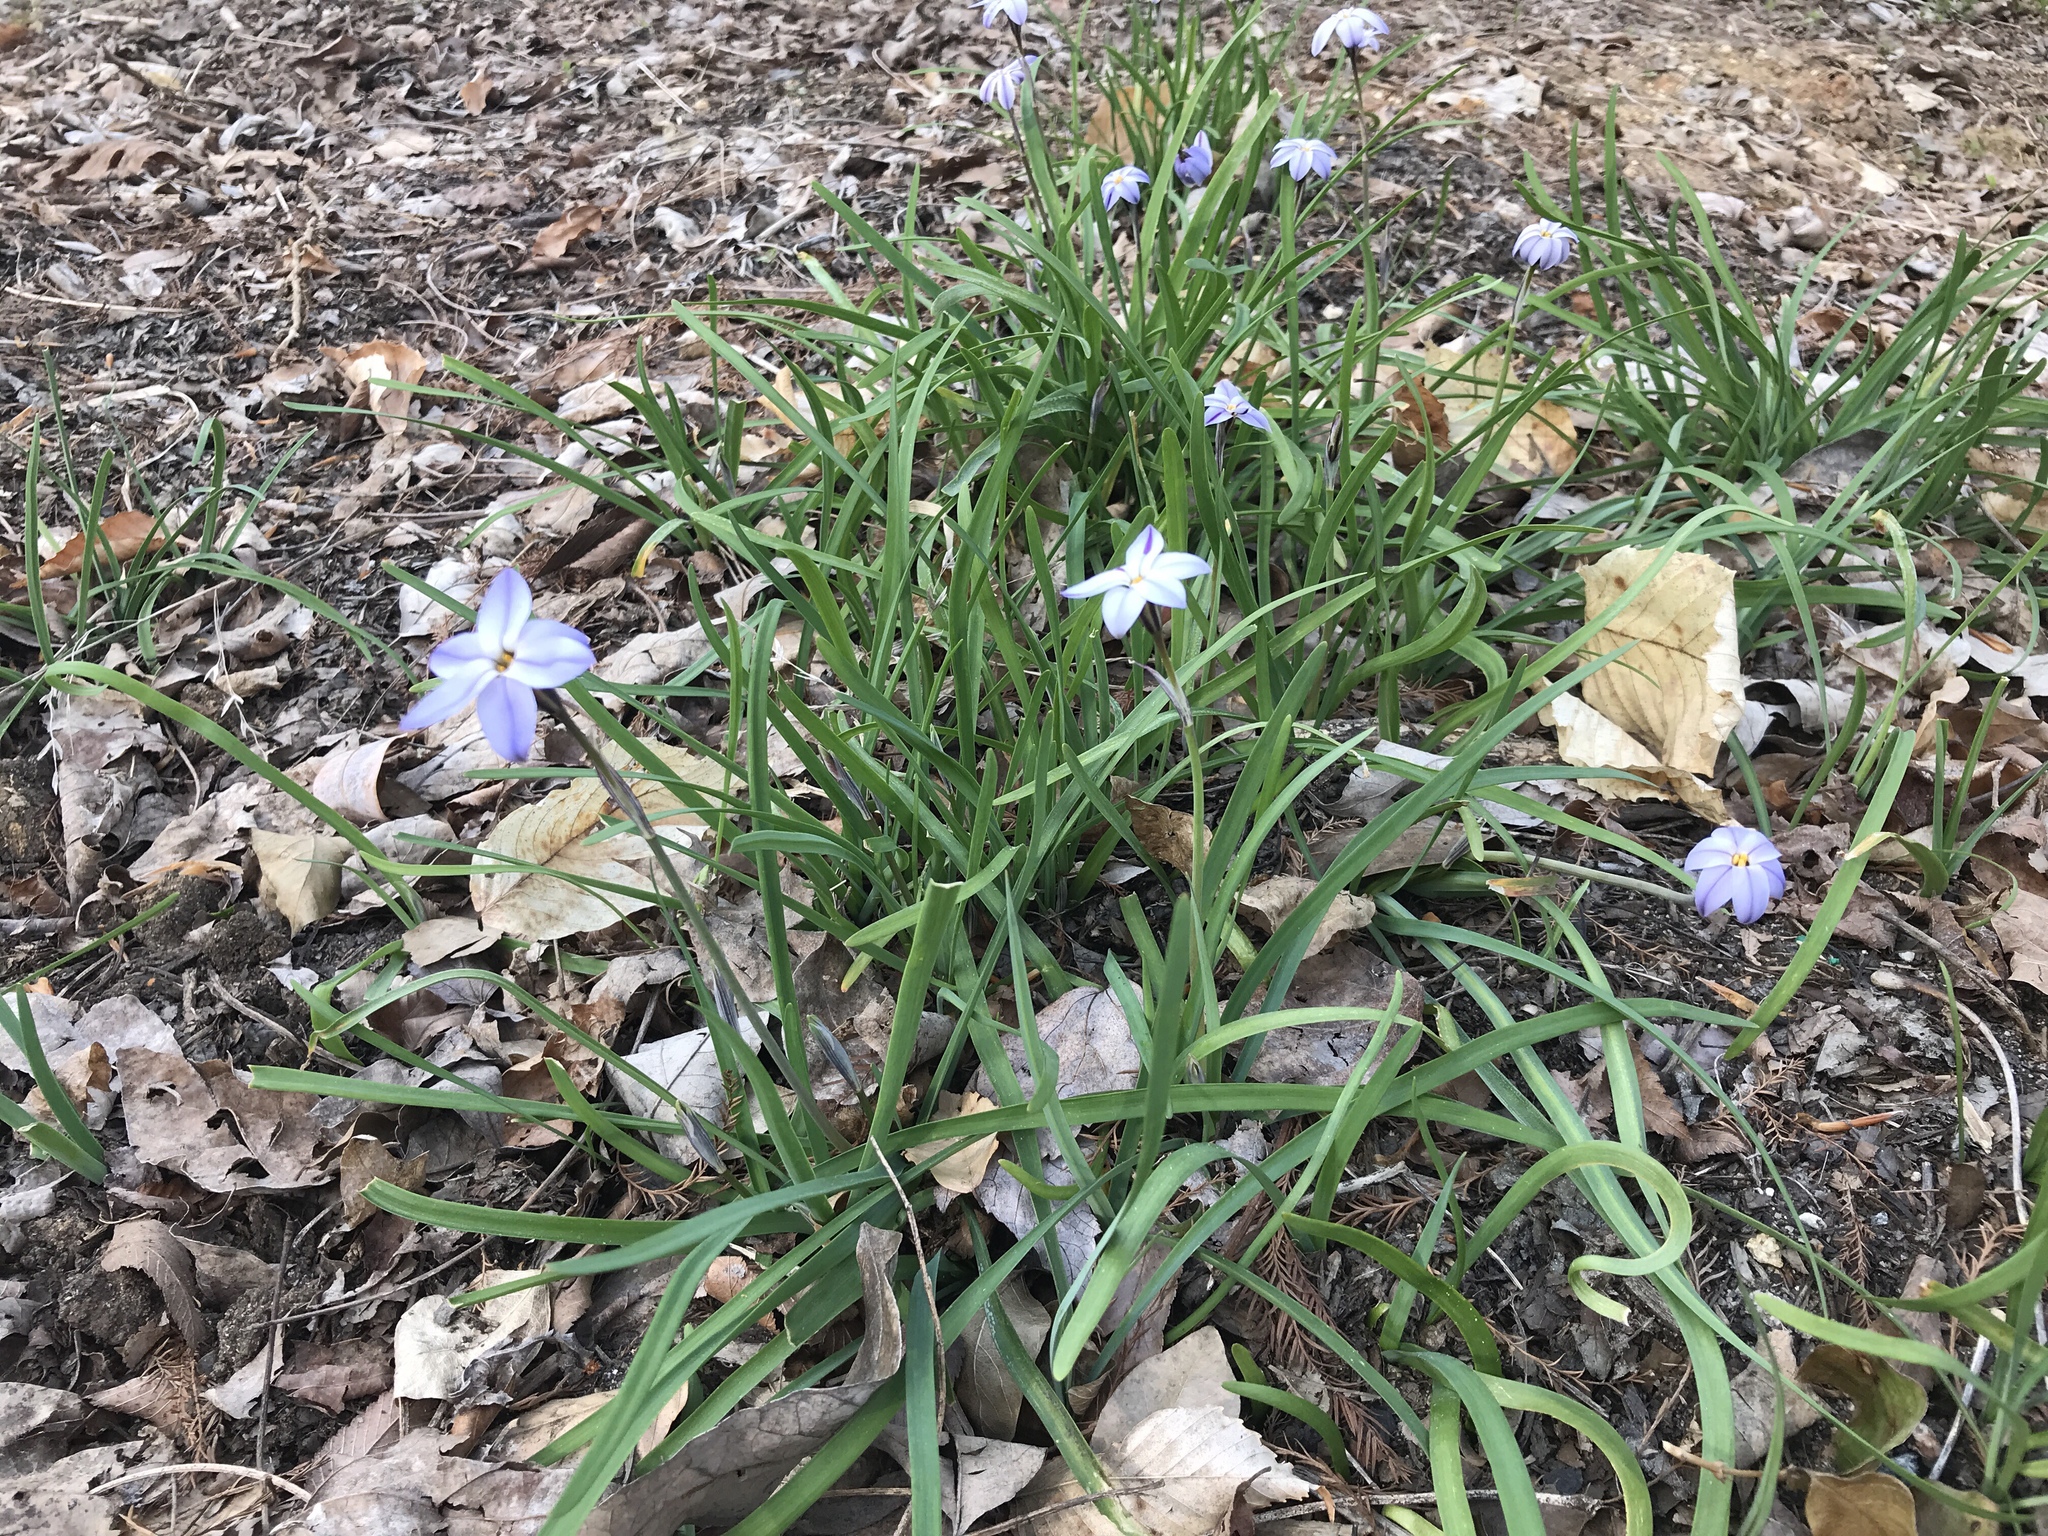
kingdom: Plantae
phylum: Tracheophyta
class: Liliopsida
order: Asparagales
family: Amaryllidaceae
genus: Ipheion
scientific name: Ipheion uniflorum
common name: Spring starflower
